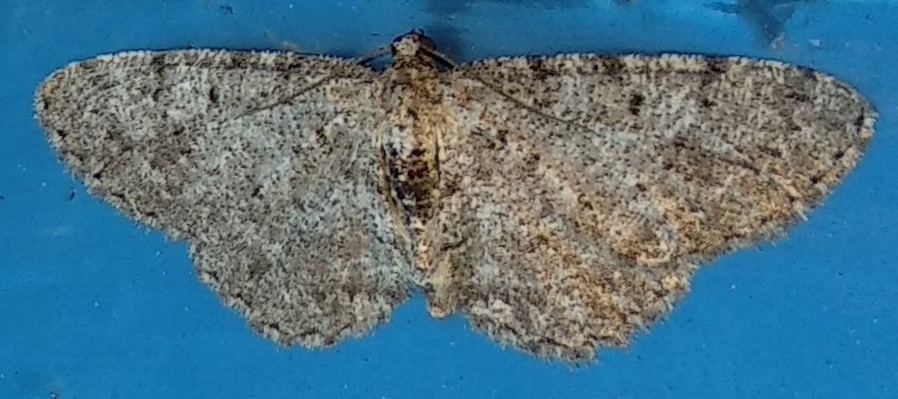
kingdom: Animalia
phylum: Arthropoda
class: Insecta
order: Lepidoptera
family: Geometridae
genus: Aethalura
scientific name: Aethalura intertexta
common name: Four-barred gray
